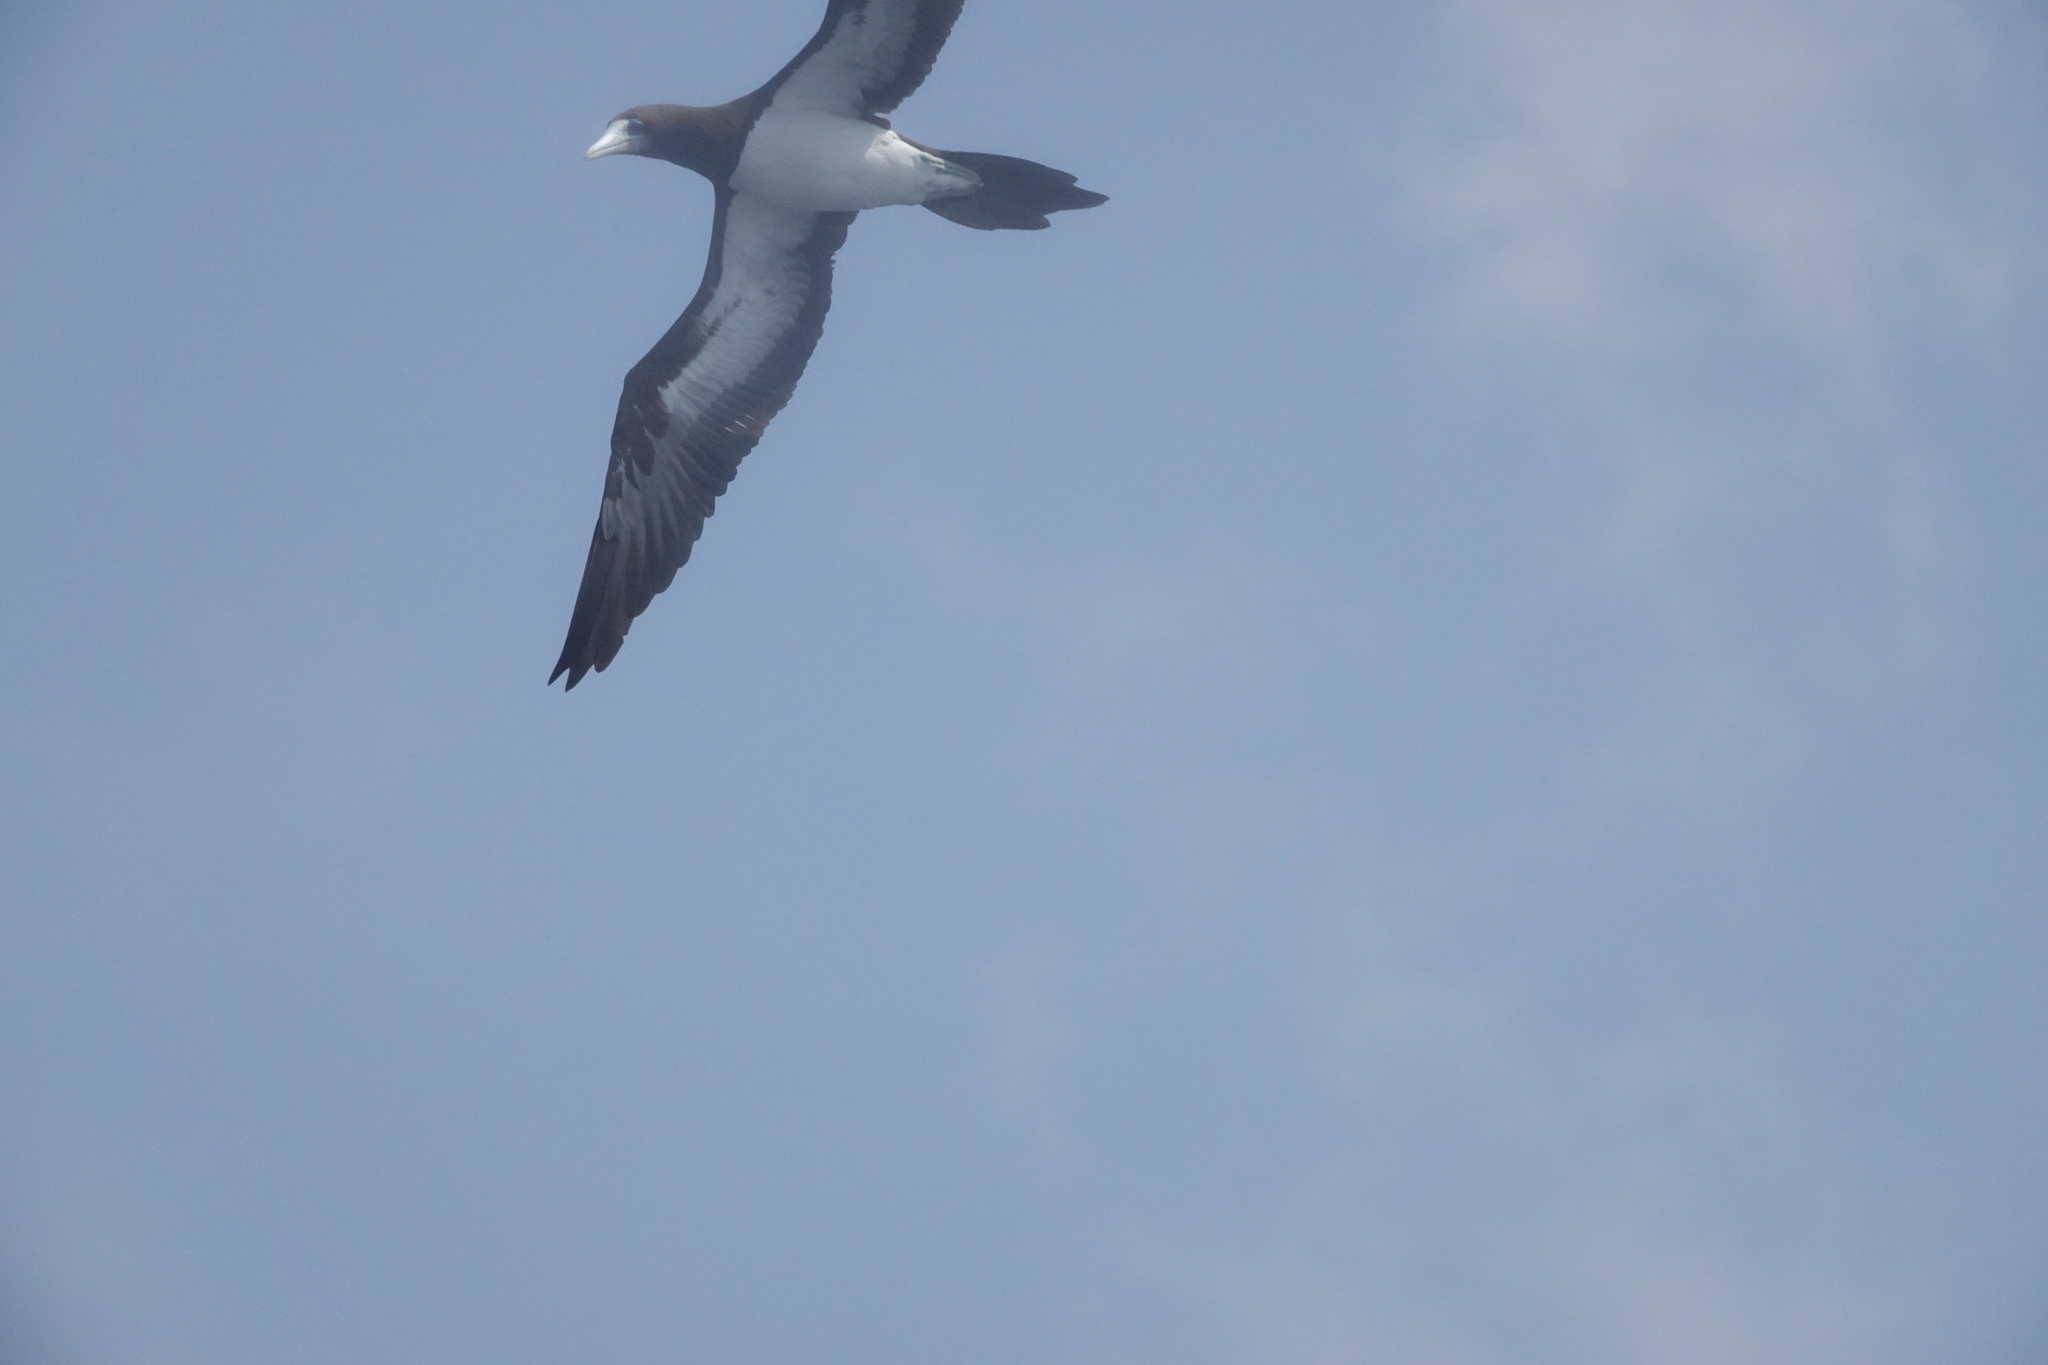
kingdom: Animalia
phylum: Chordata
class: Aves
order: Suliformes
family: Sulidae
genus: Sula
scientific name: Sula leucogaster
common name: Brown booby
